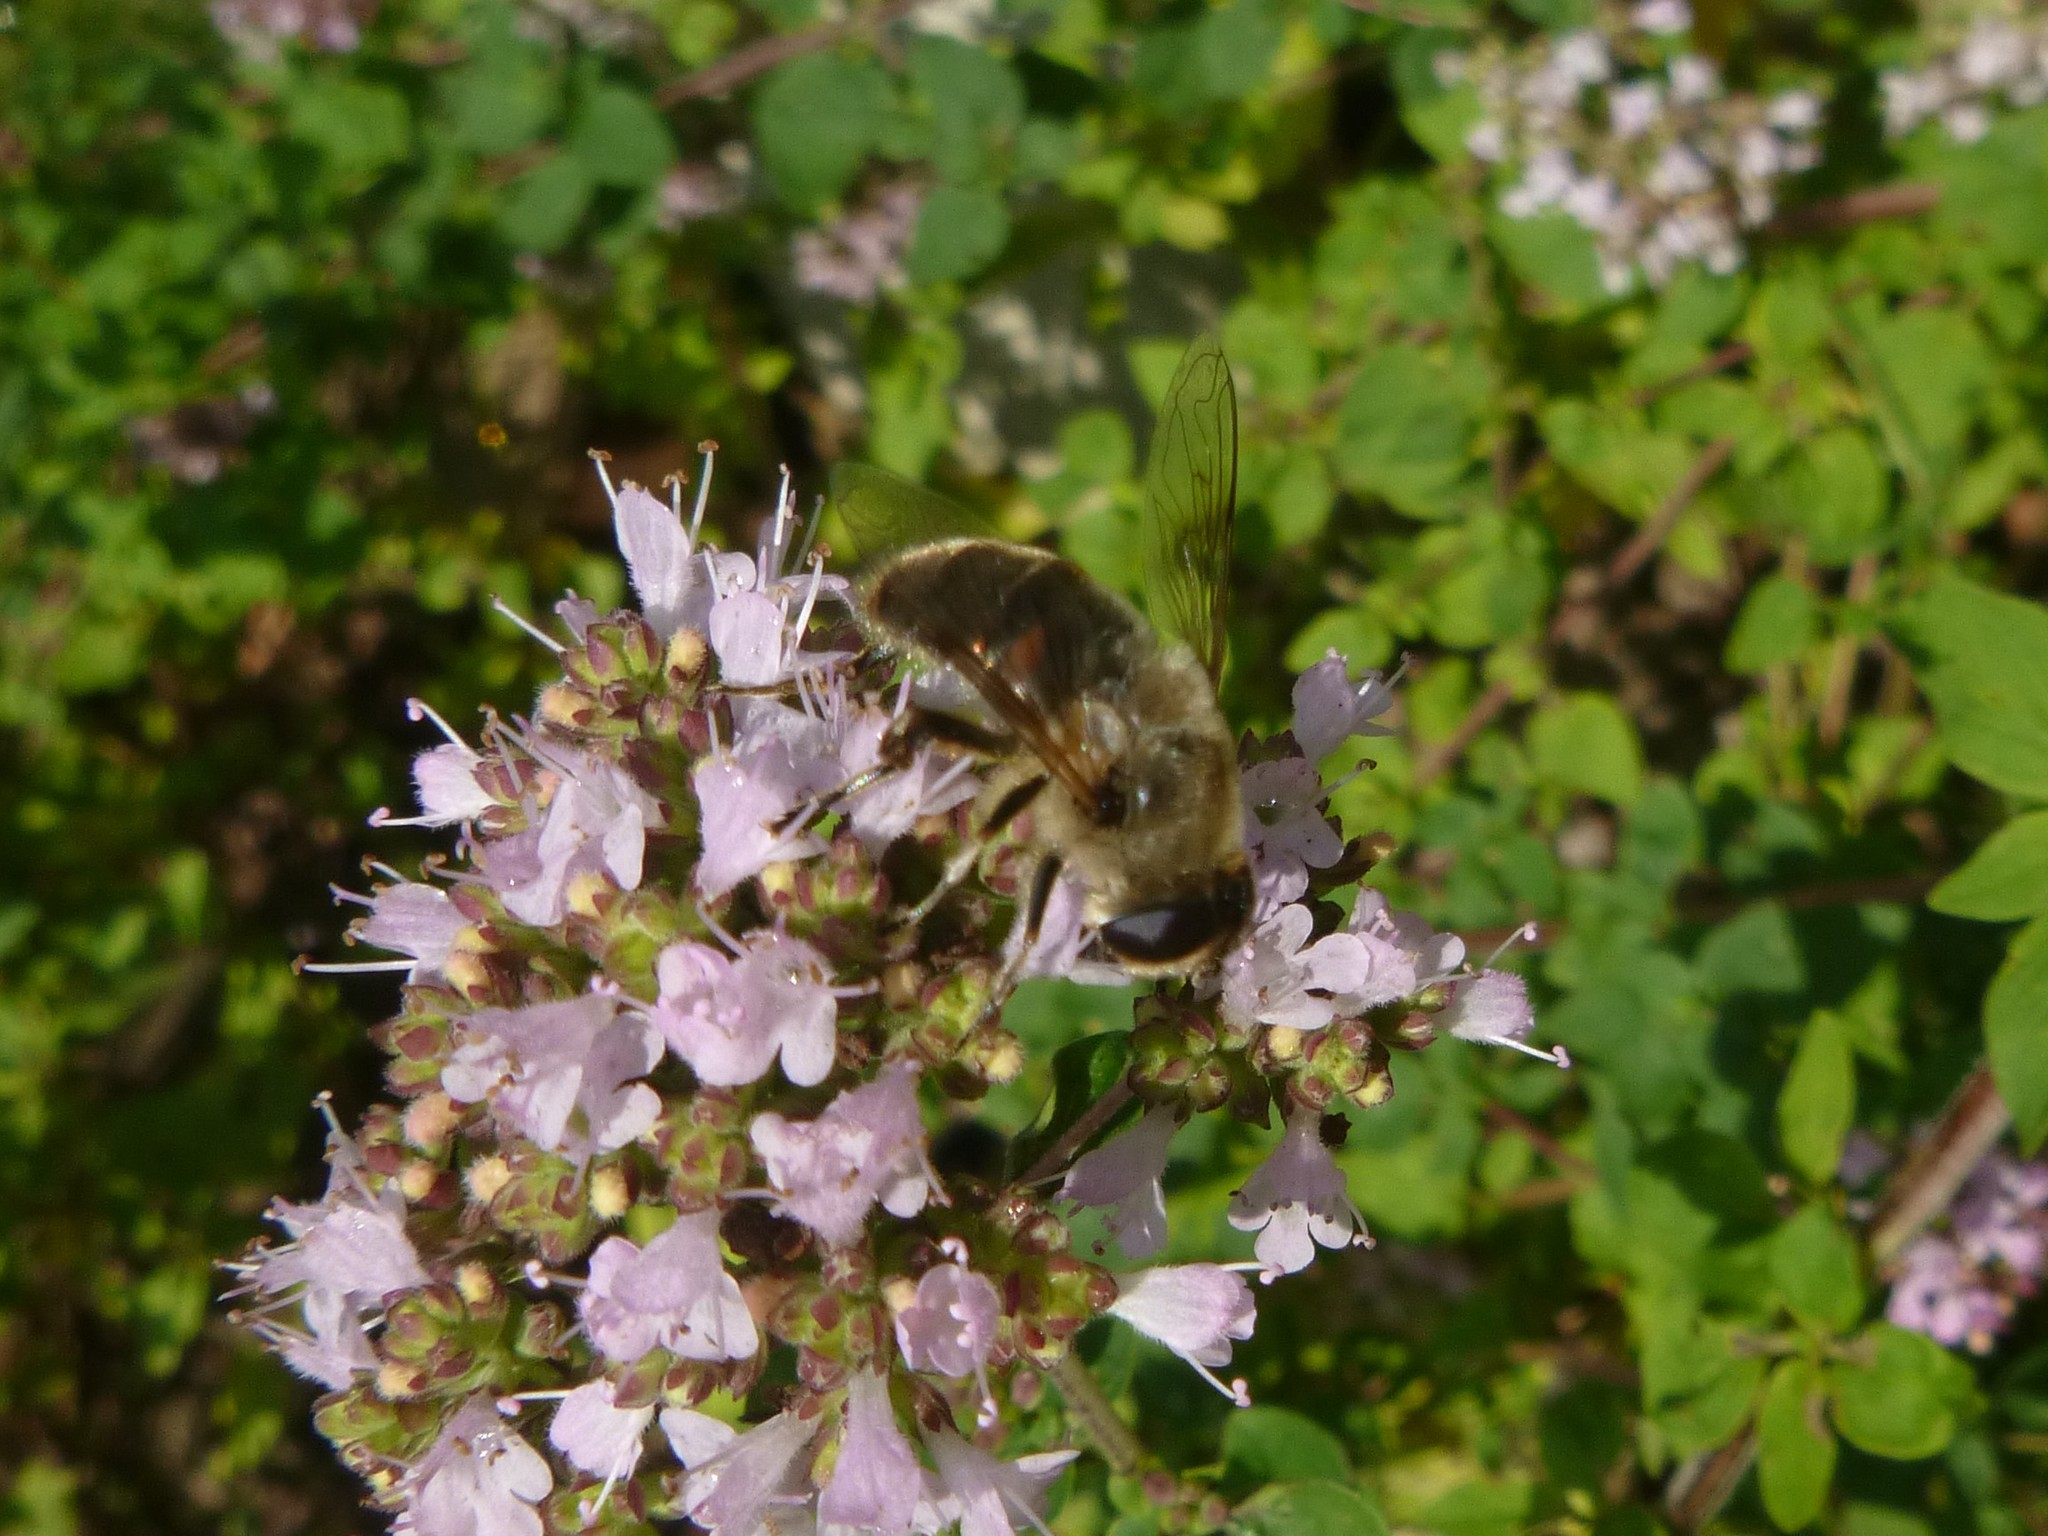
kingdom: Animalia
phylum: Arthropoda
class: Insecta
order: Diptera
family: Syrphidae
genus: Eristalis
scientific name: Eristalis tenax
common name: Drone fly
